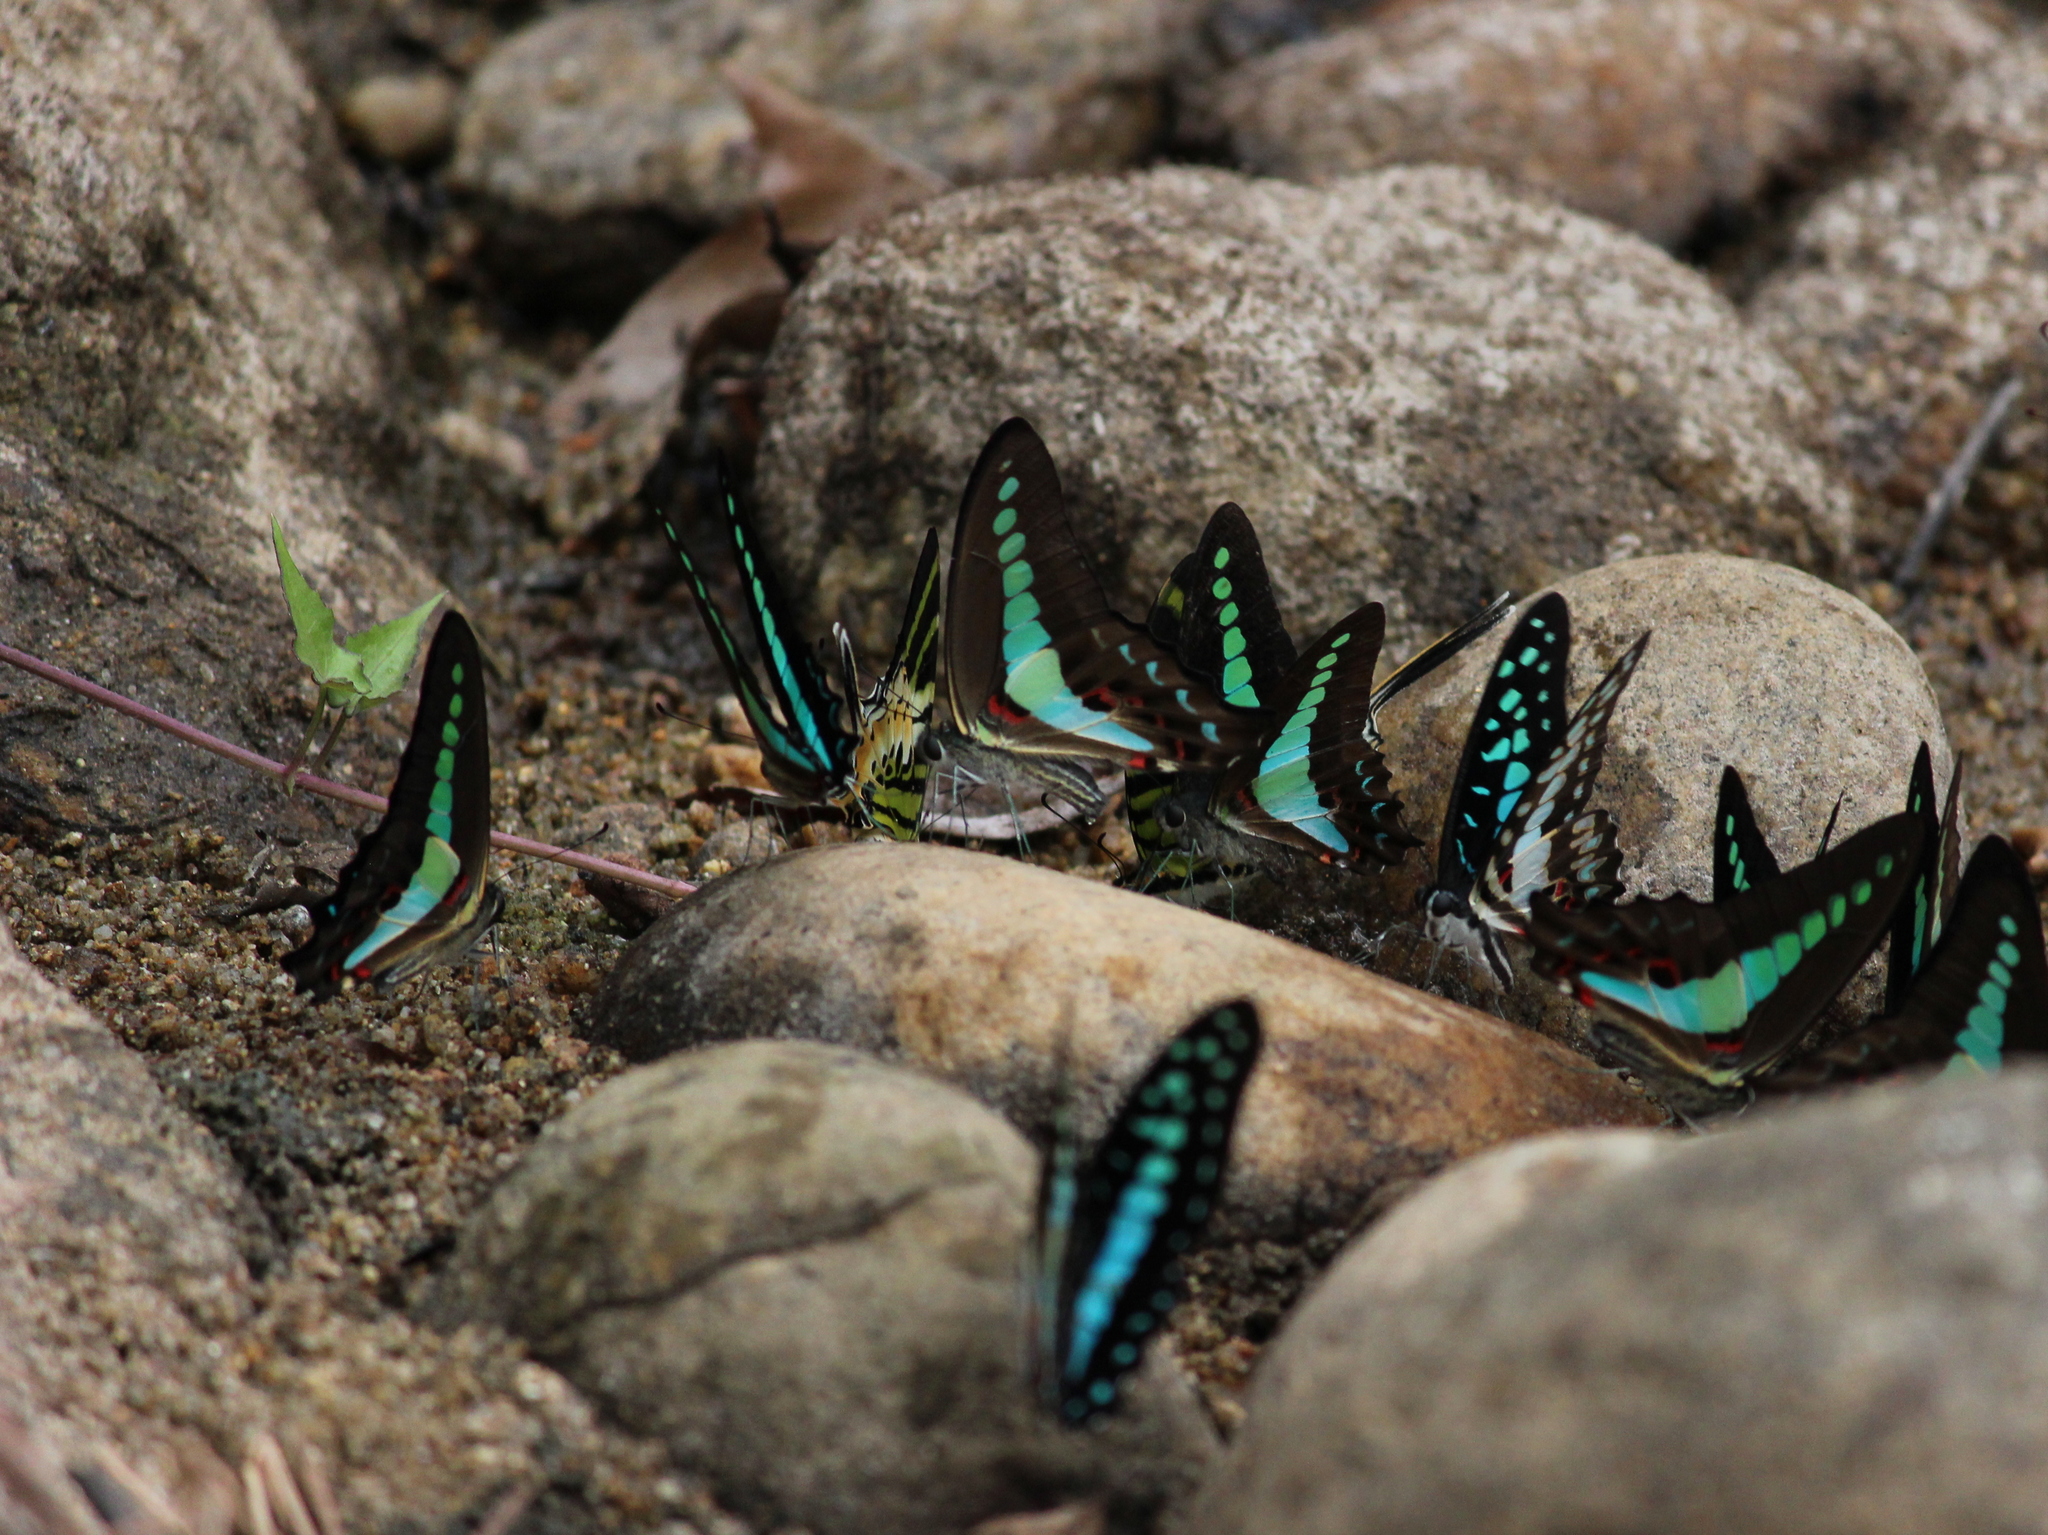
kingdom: Animalia
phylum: Arthropoda
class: Insecta
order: Lepidoptera
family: Papilionidae
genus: Graphium
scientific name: Graphium
